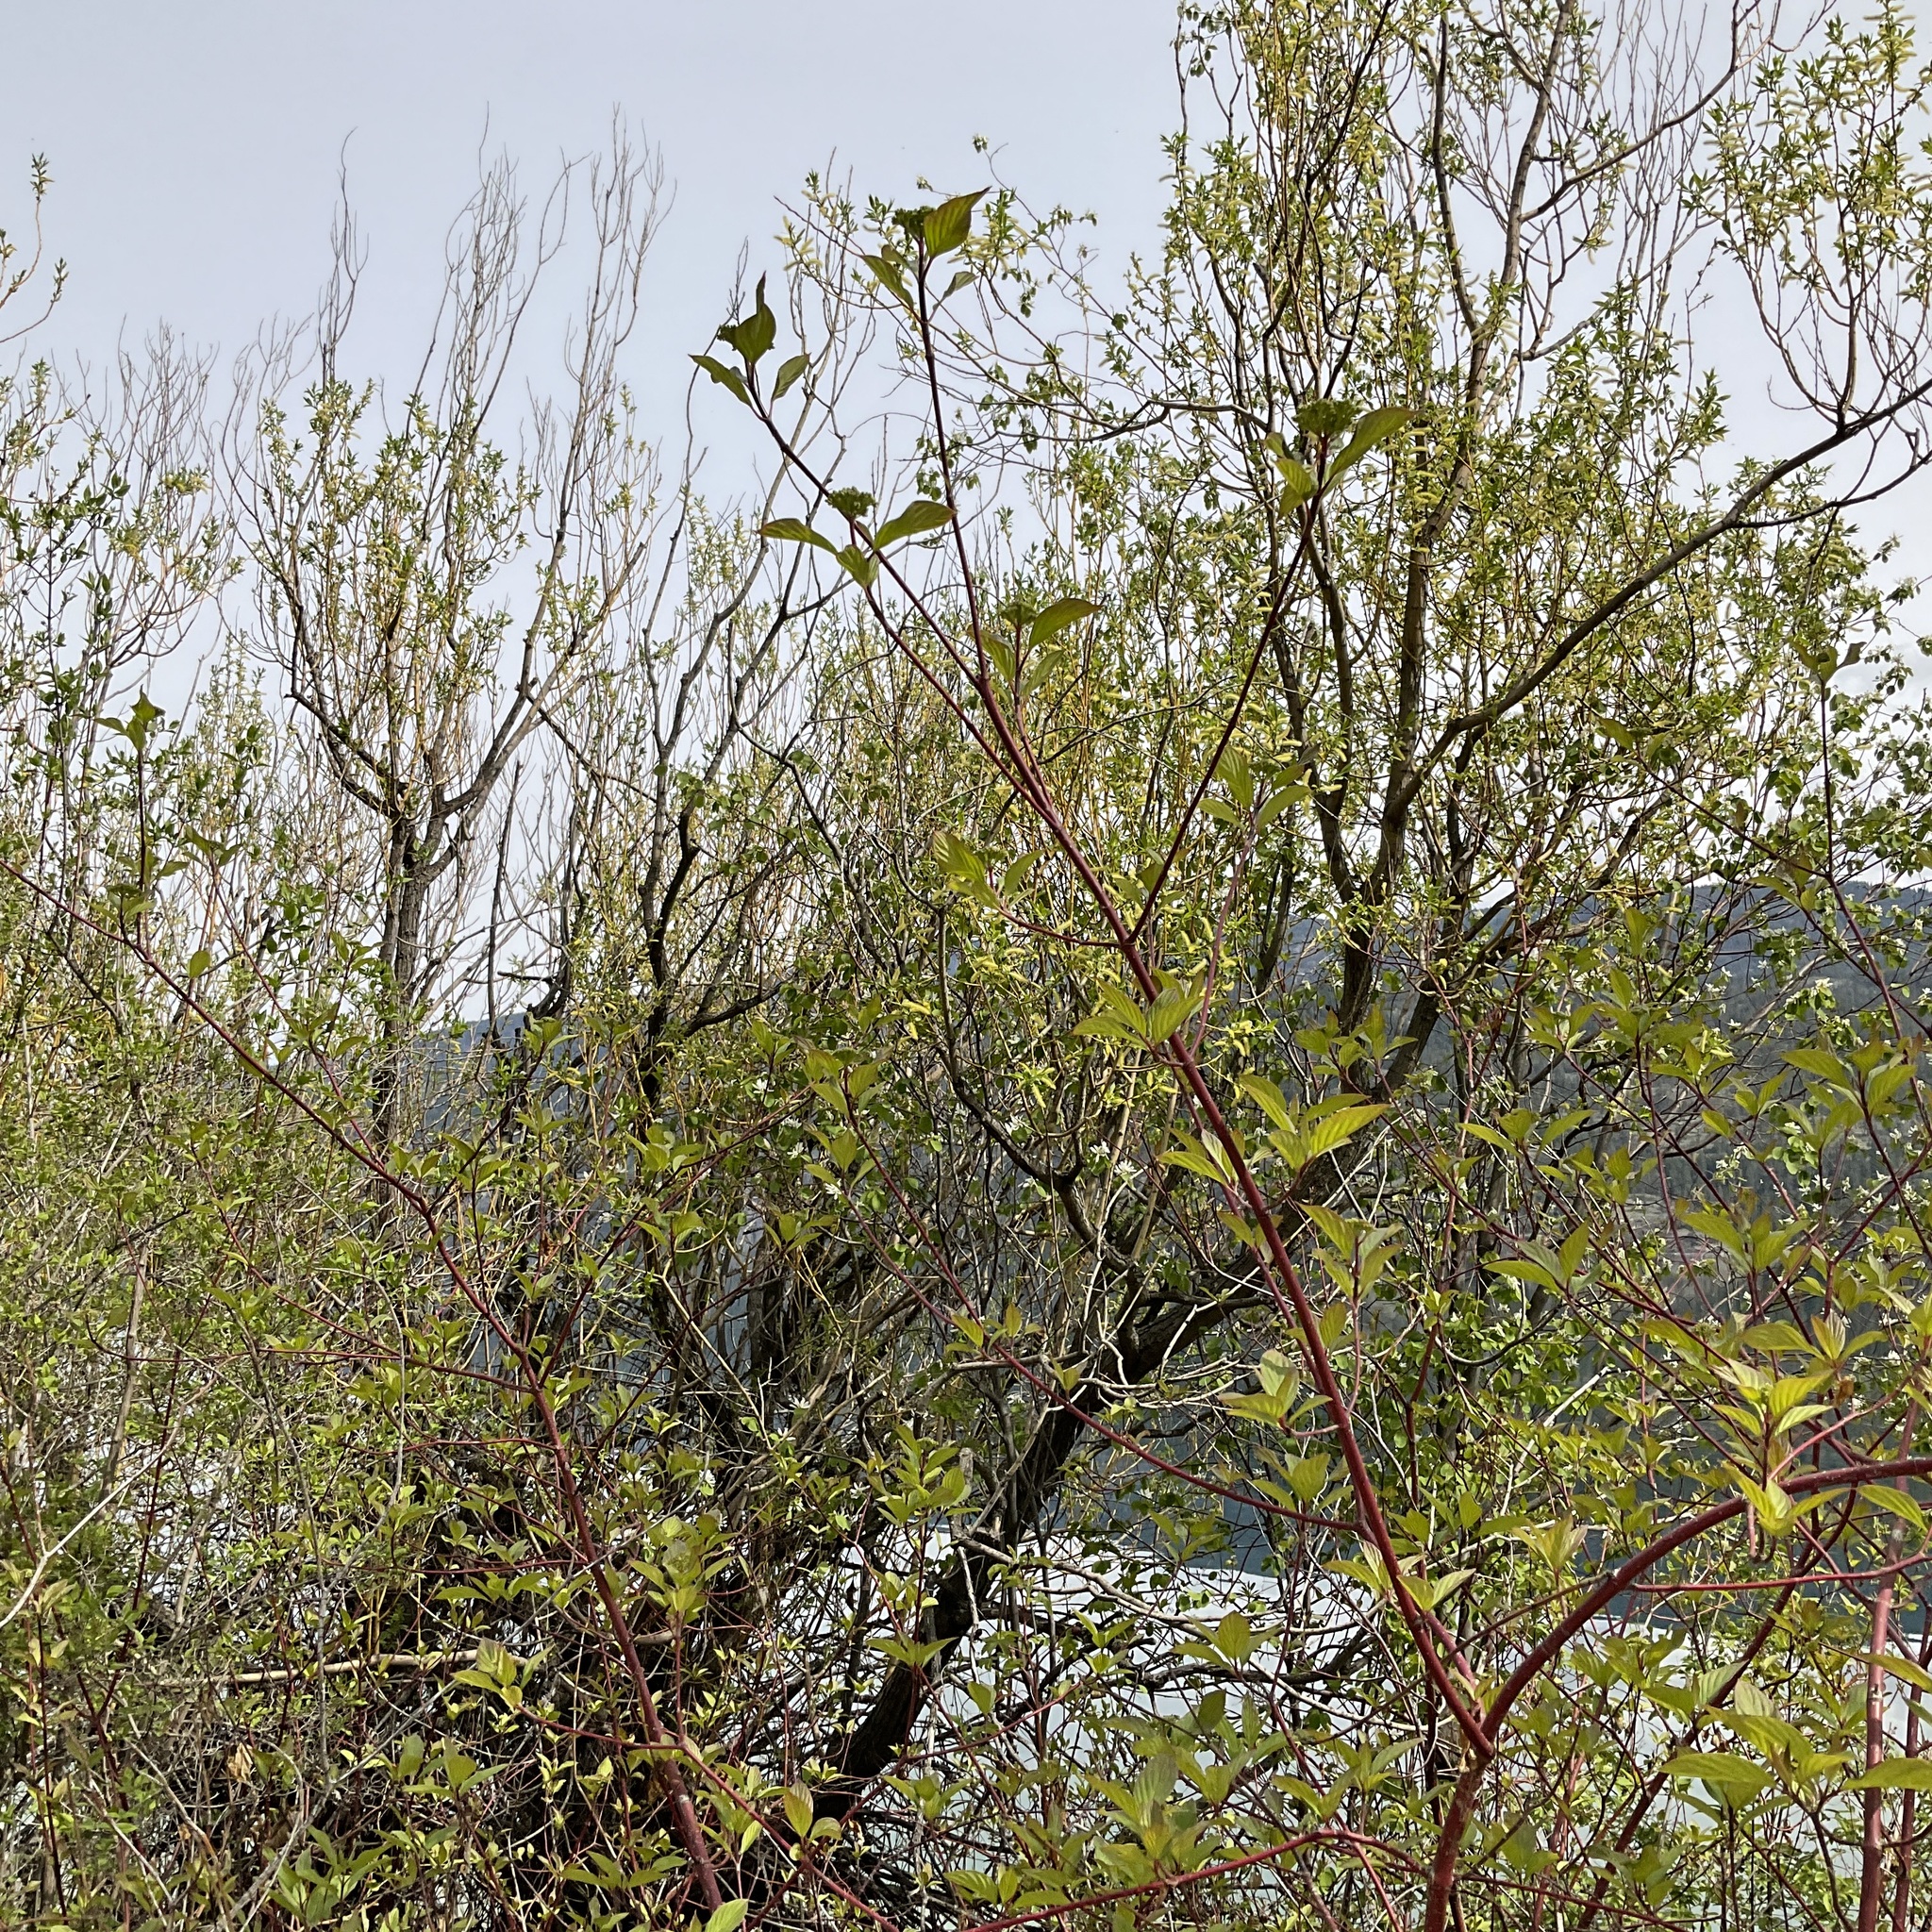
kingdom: Plantae
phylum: Tracheophyta
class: Magnoliopsida
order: Cornales
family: Cornaceae
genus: Cornus
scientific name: Cornus sericea
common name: Red-osier dogwood
